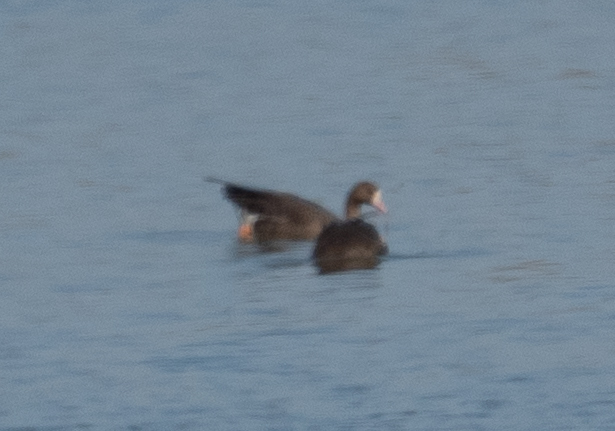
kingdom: Animalia
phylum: Chordata
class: Aves
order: Anseriformes
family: Anatidae
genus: Anser
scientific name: Anser albifrons
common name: Greater white-fronted goose
